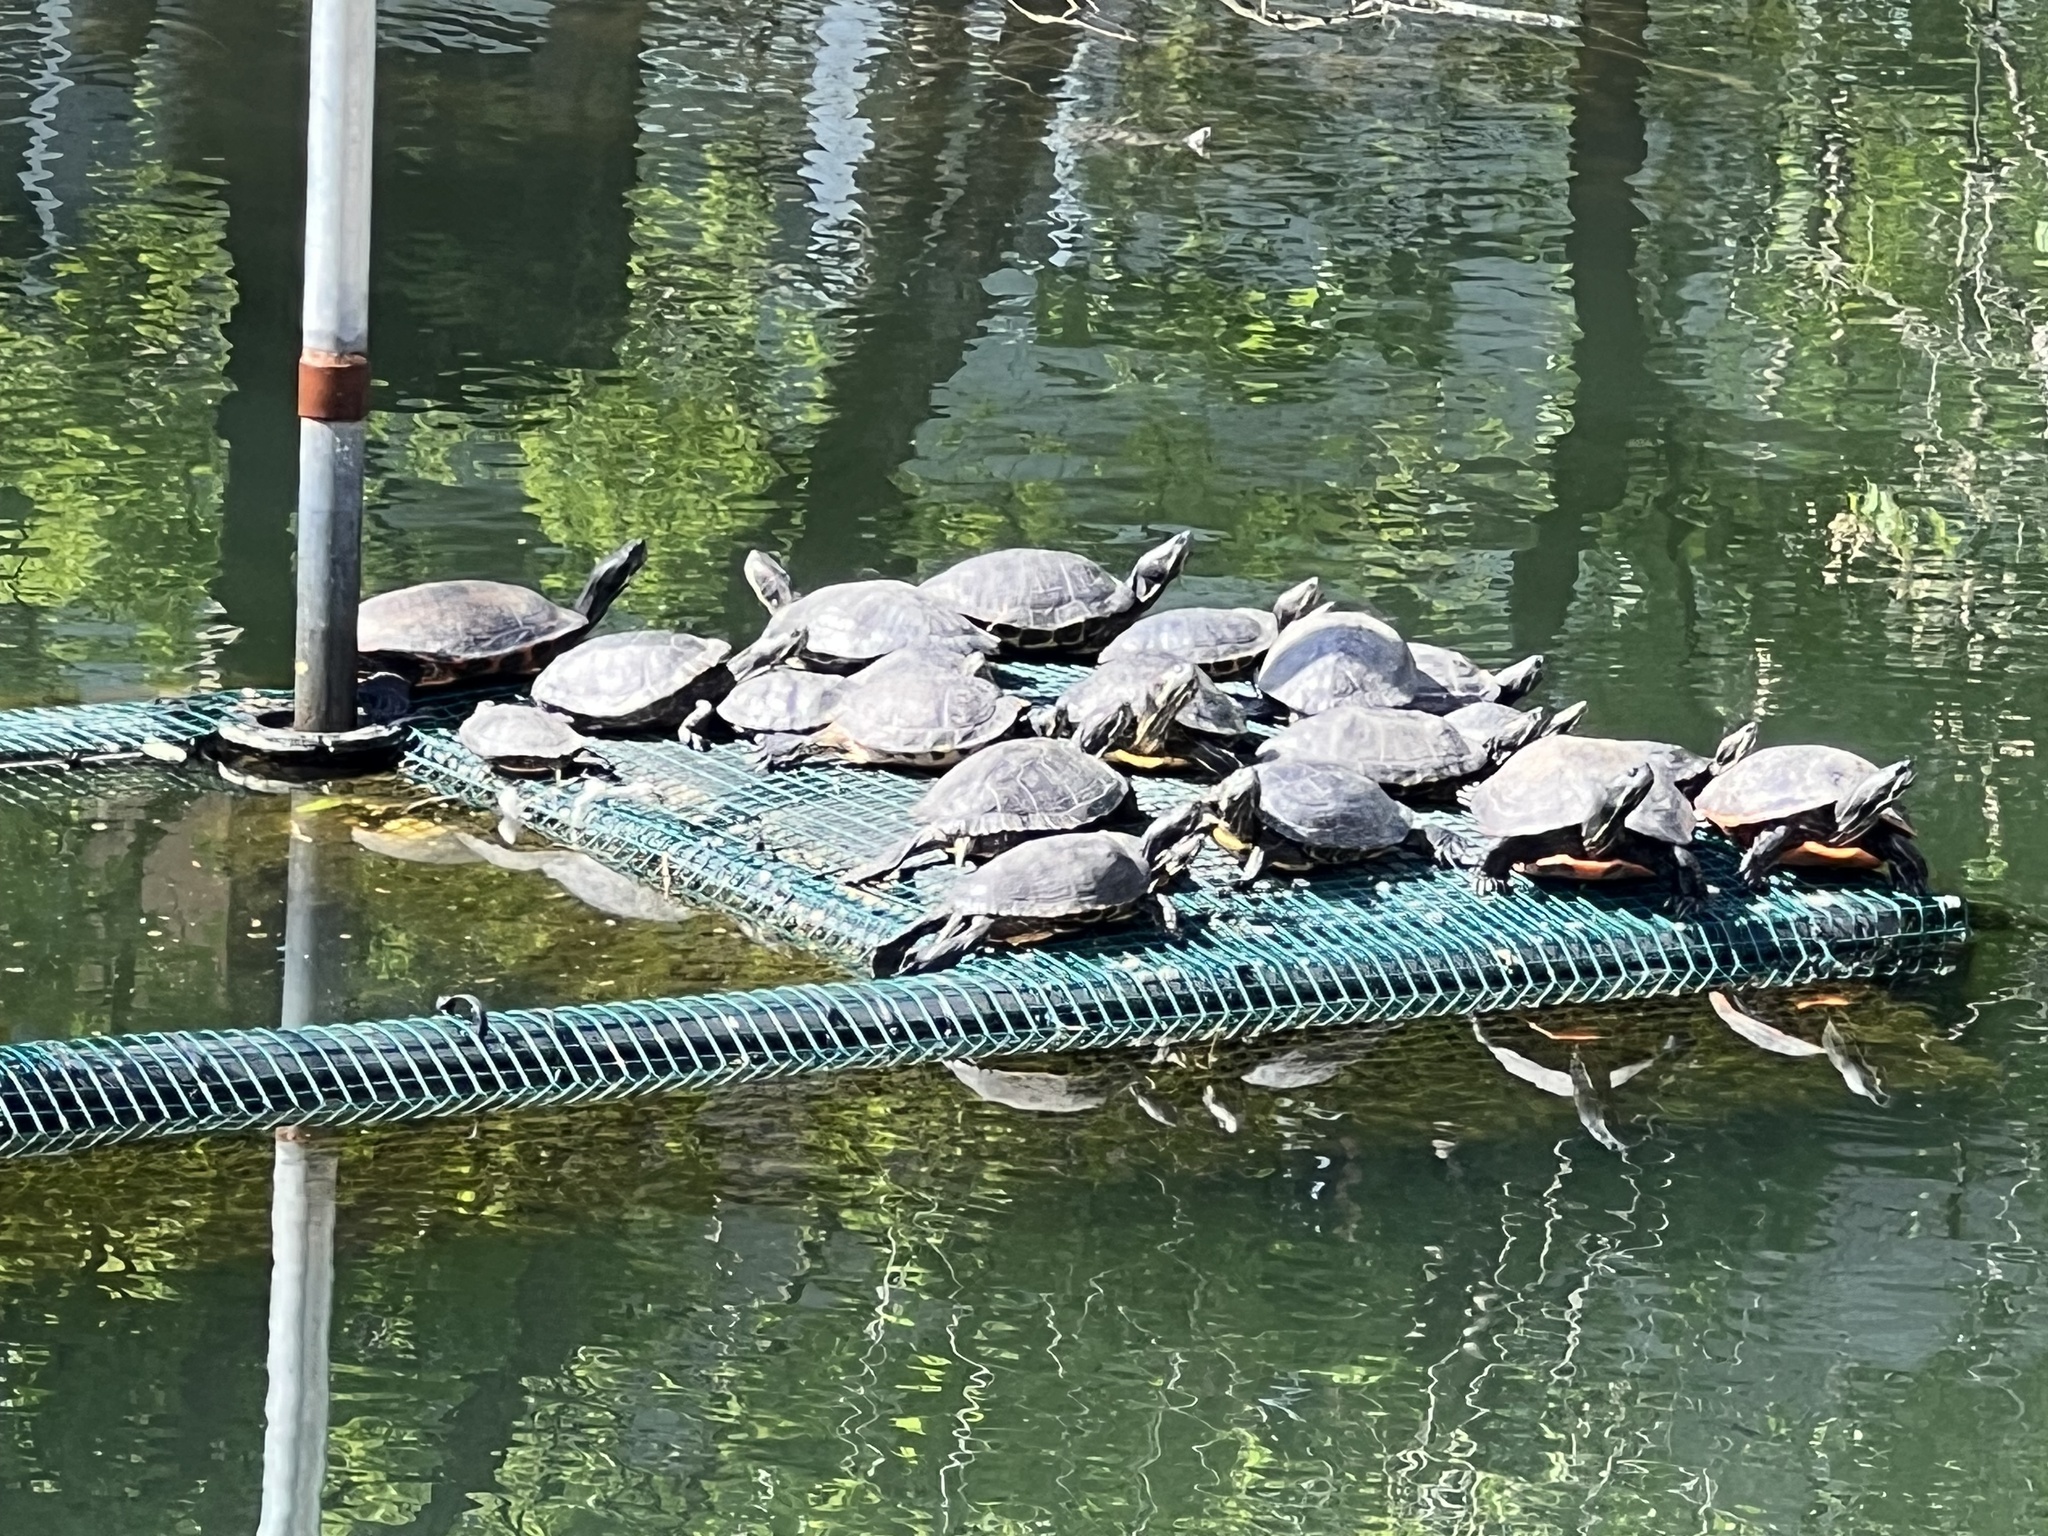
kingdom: Animalia
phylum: Chordata
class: Testudines
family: Emydidae
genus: Trachemys
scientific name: Trachemys scripta
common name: Slider
